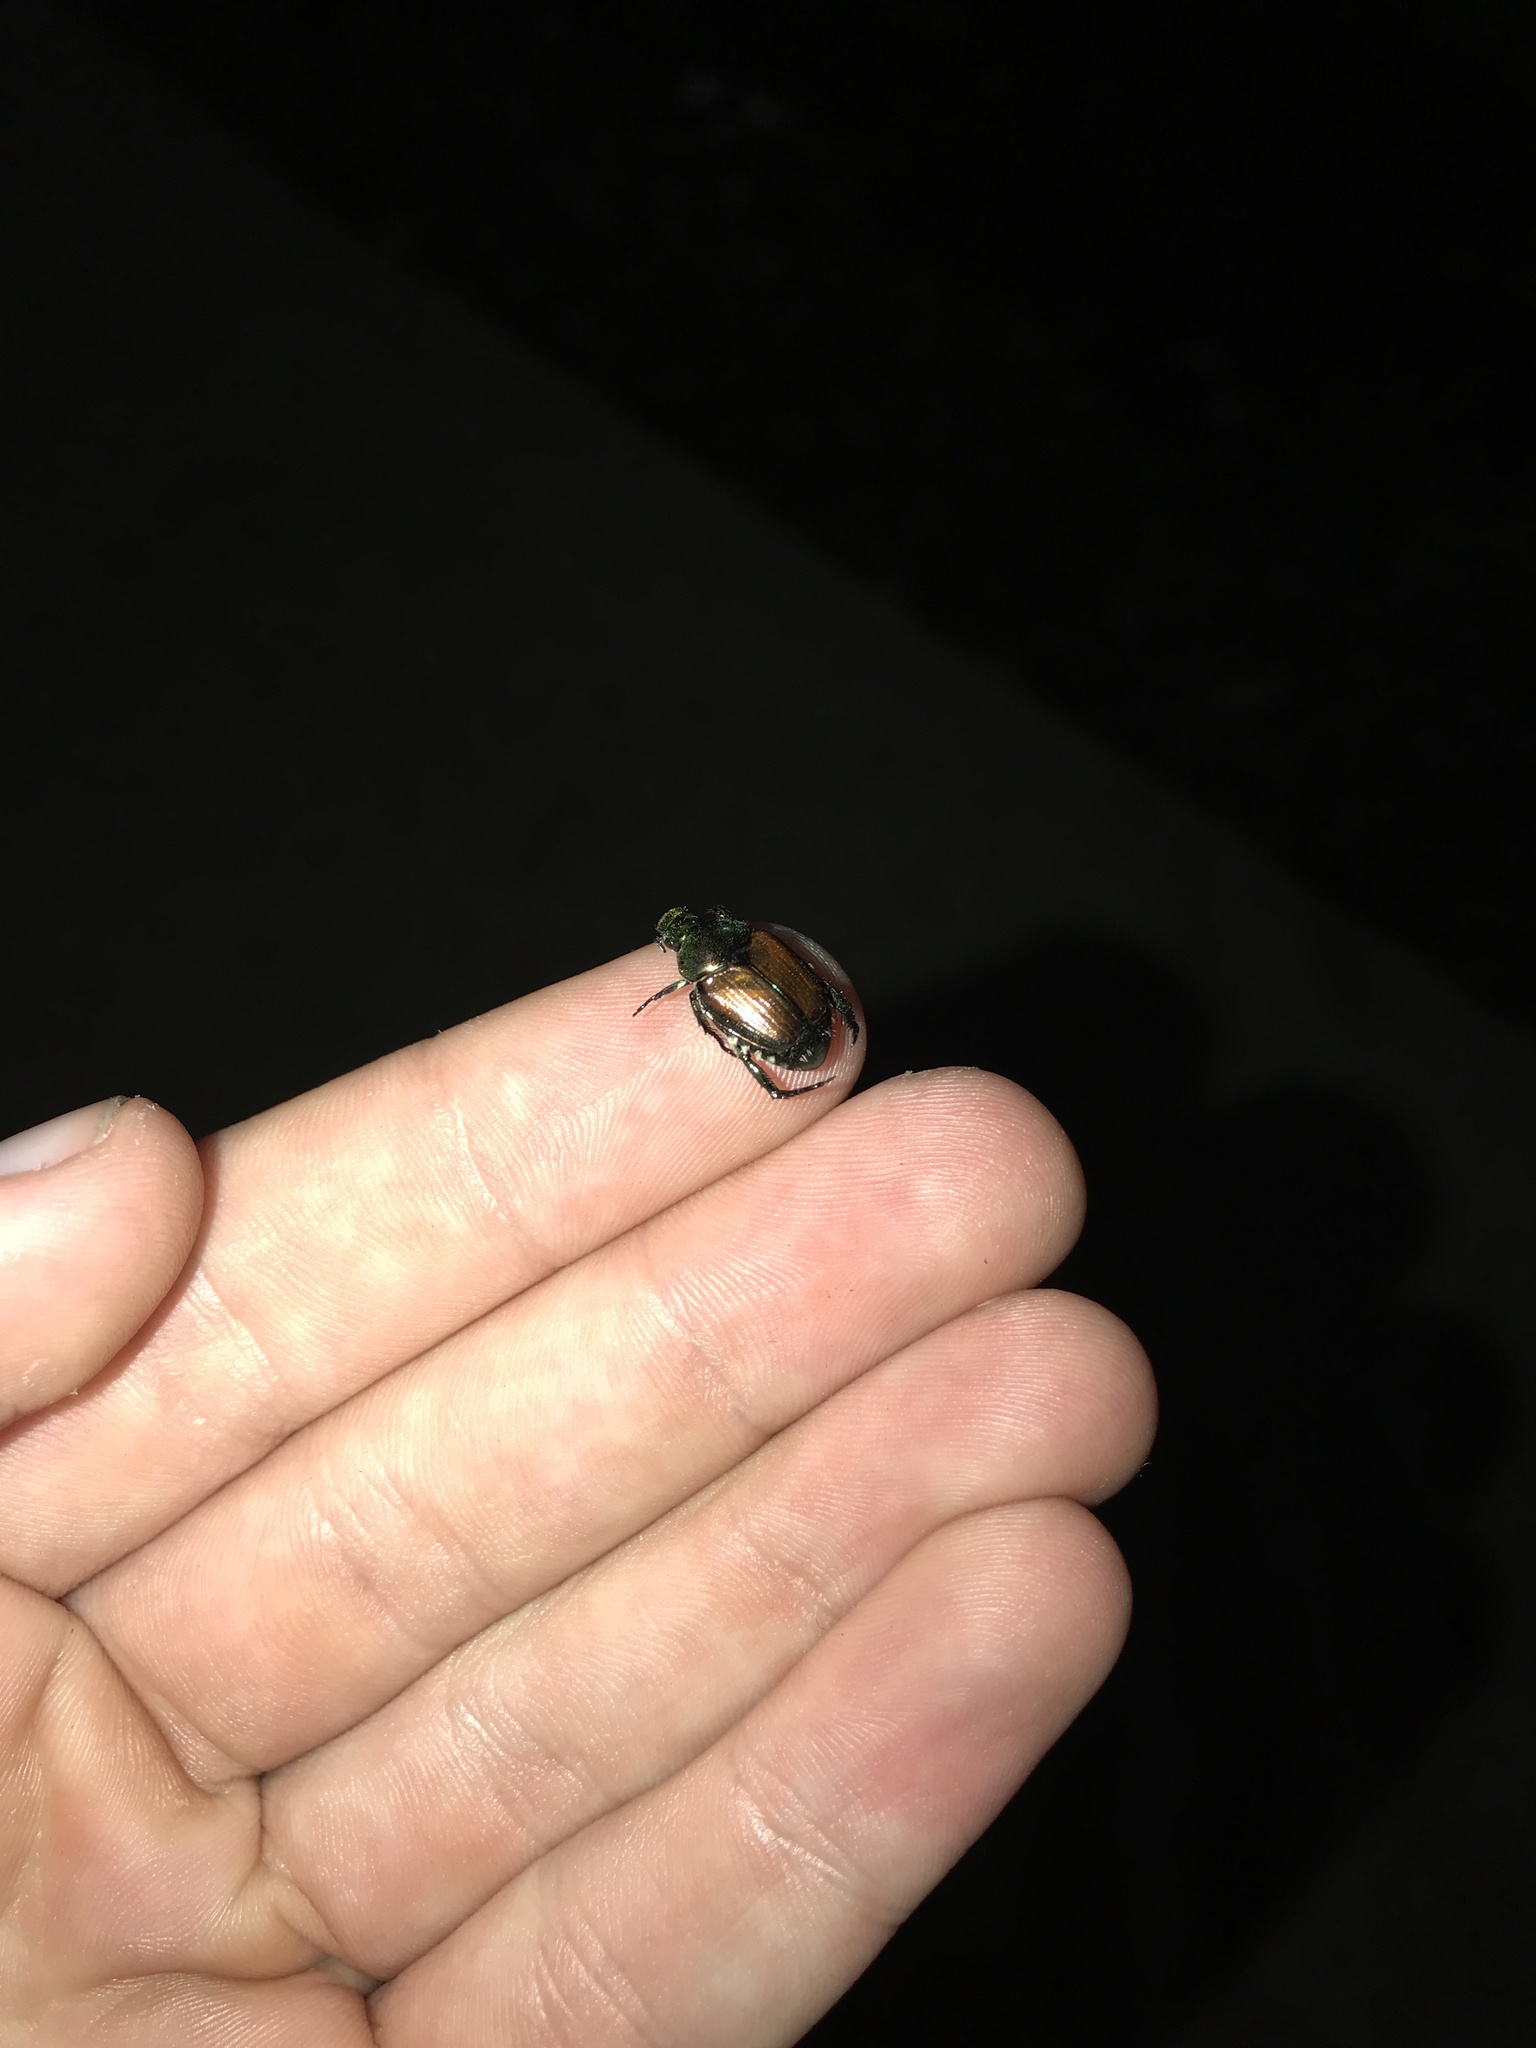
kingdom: Animalia
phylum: Arthropoda
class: Insecta
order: Coleoptera
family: Scarabaeidae
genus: Popillia
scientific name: Popillia japonica
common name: Japanese beetle
